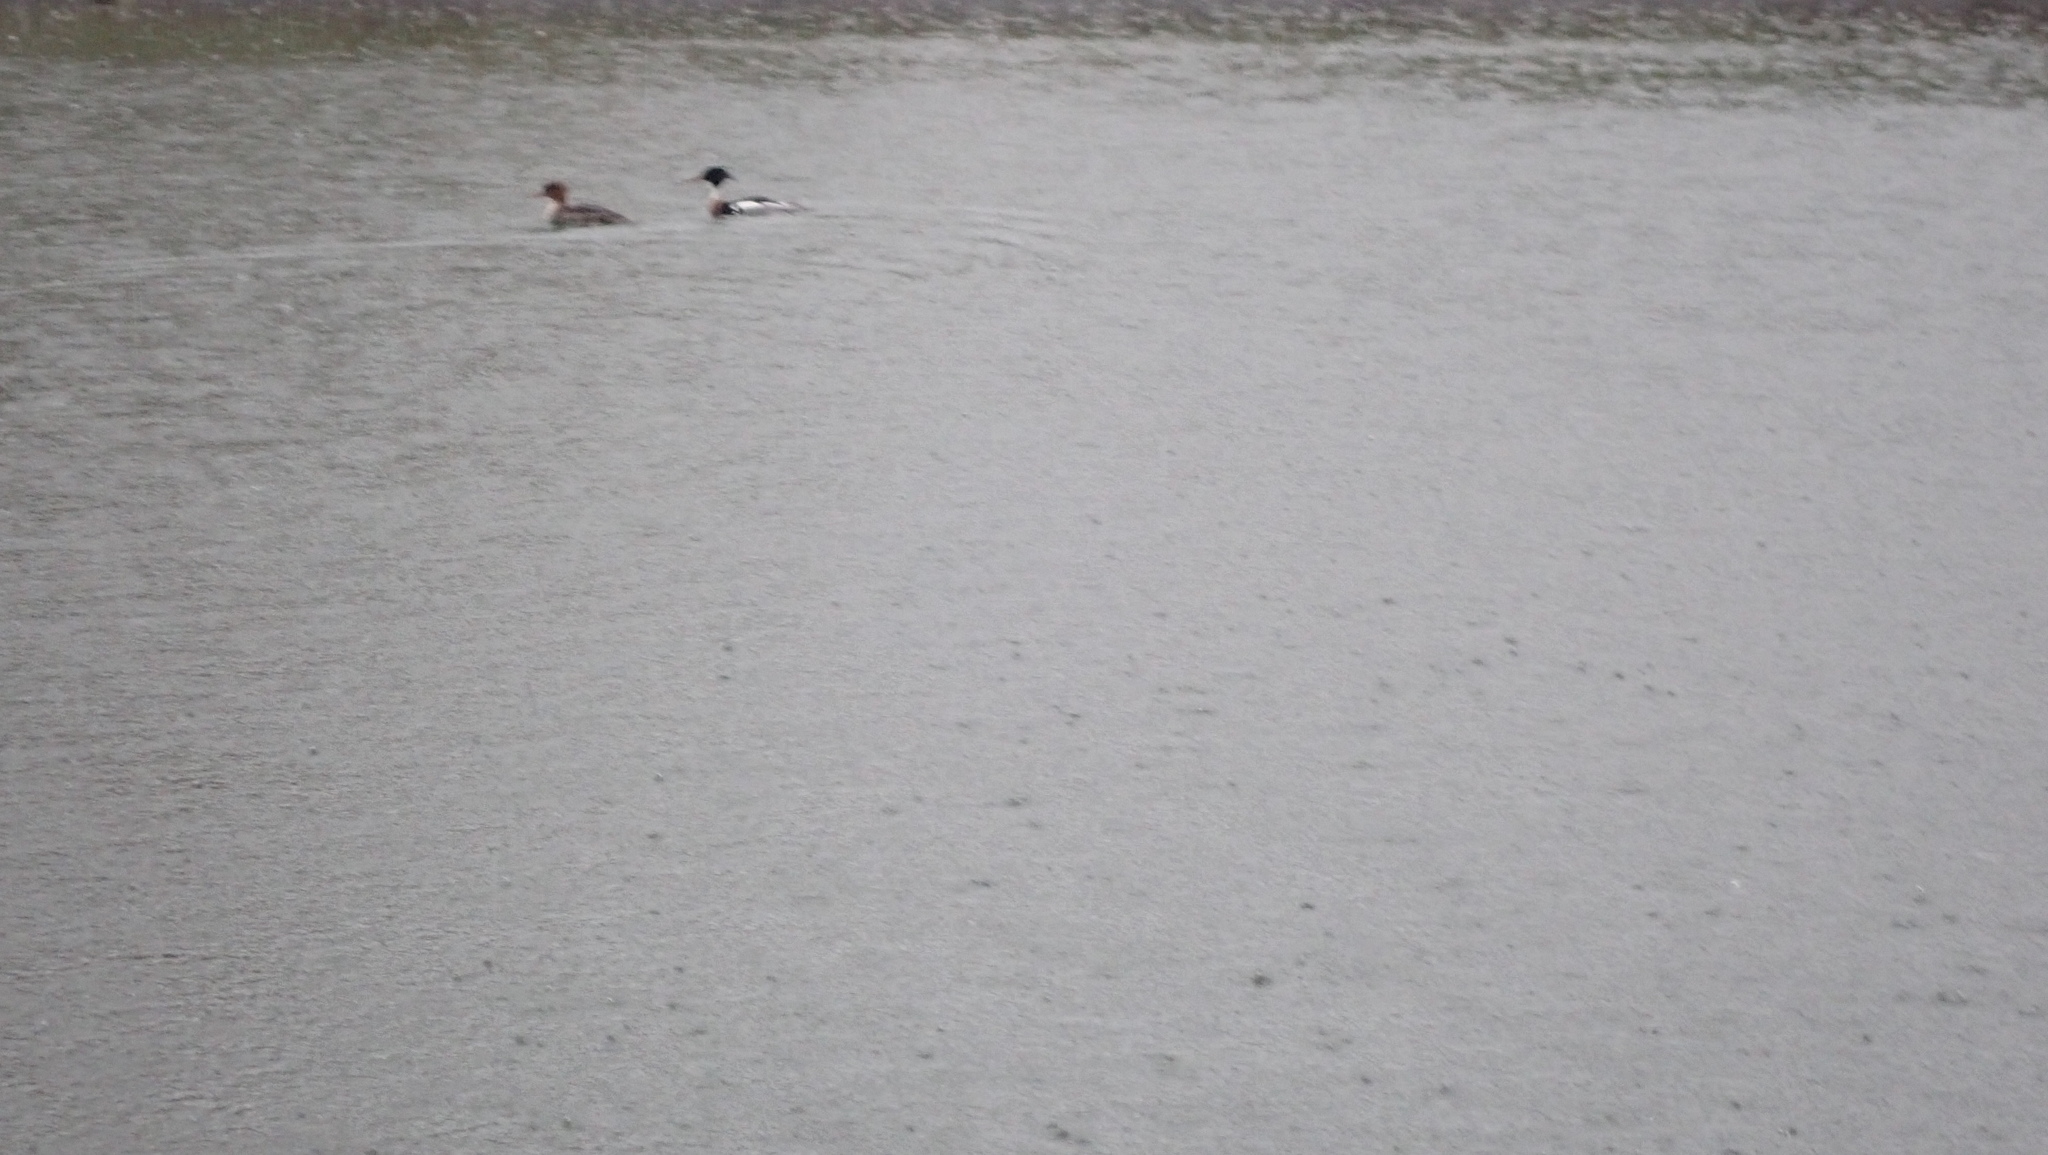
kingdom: Animalia
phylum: Chordata
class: Aves
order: Anseriformes
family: Anatidae
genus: Mergus
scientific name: Mergus serrator
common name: Red-breasted merganser
